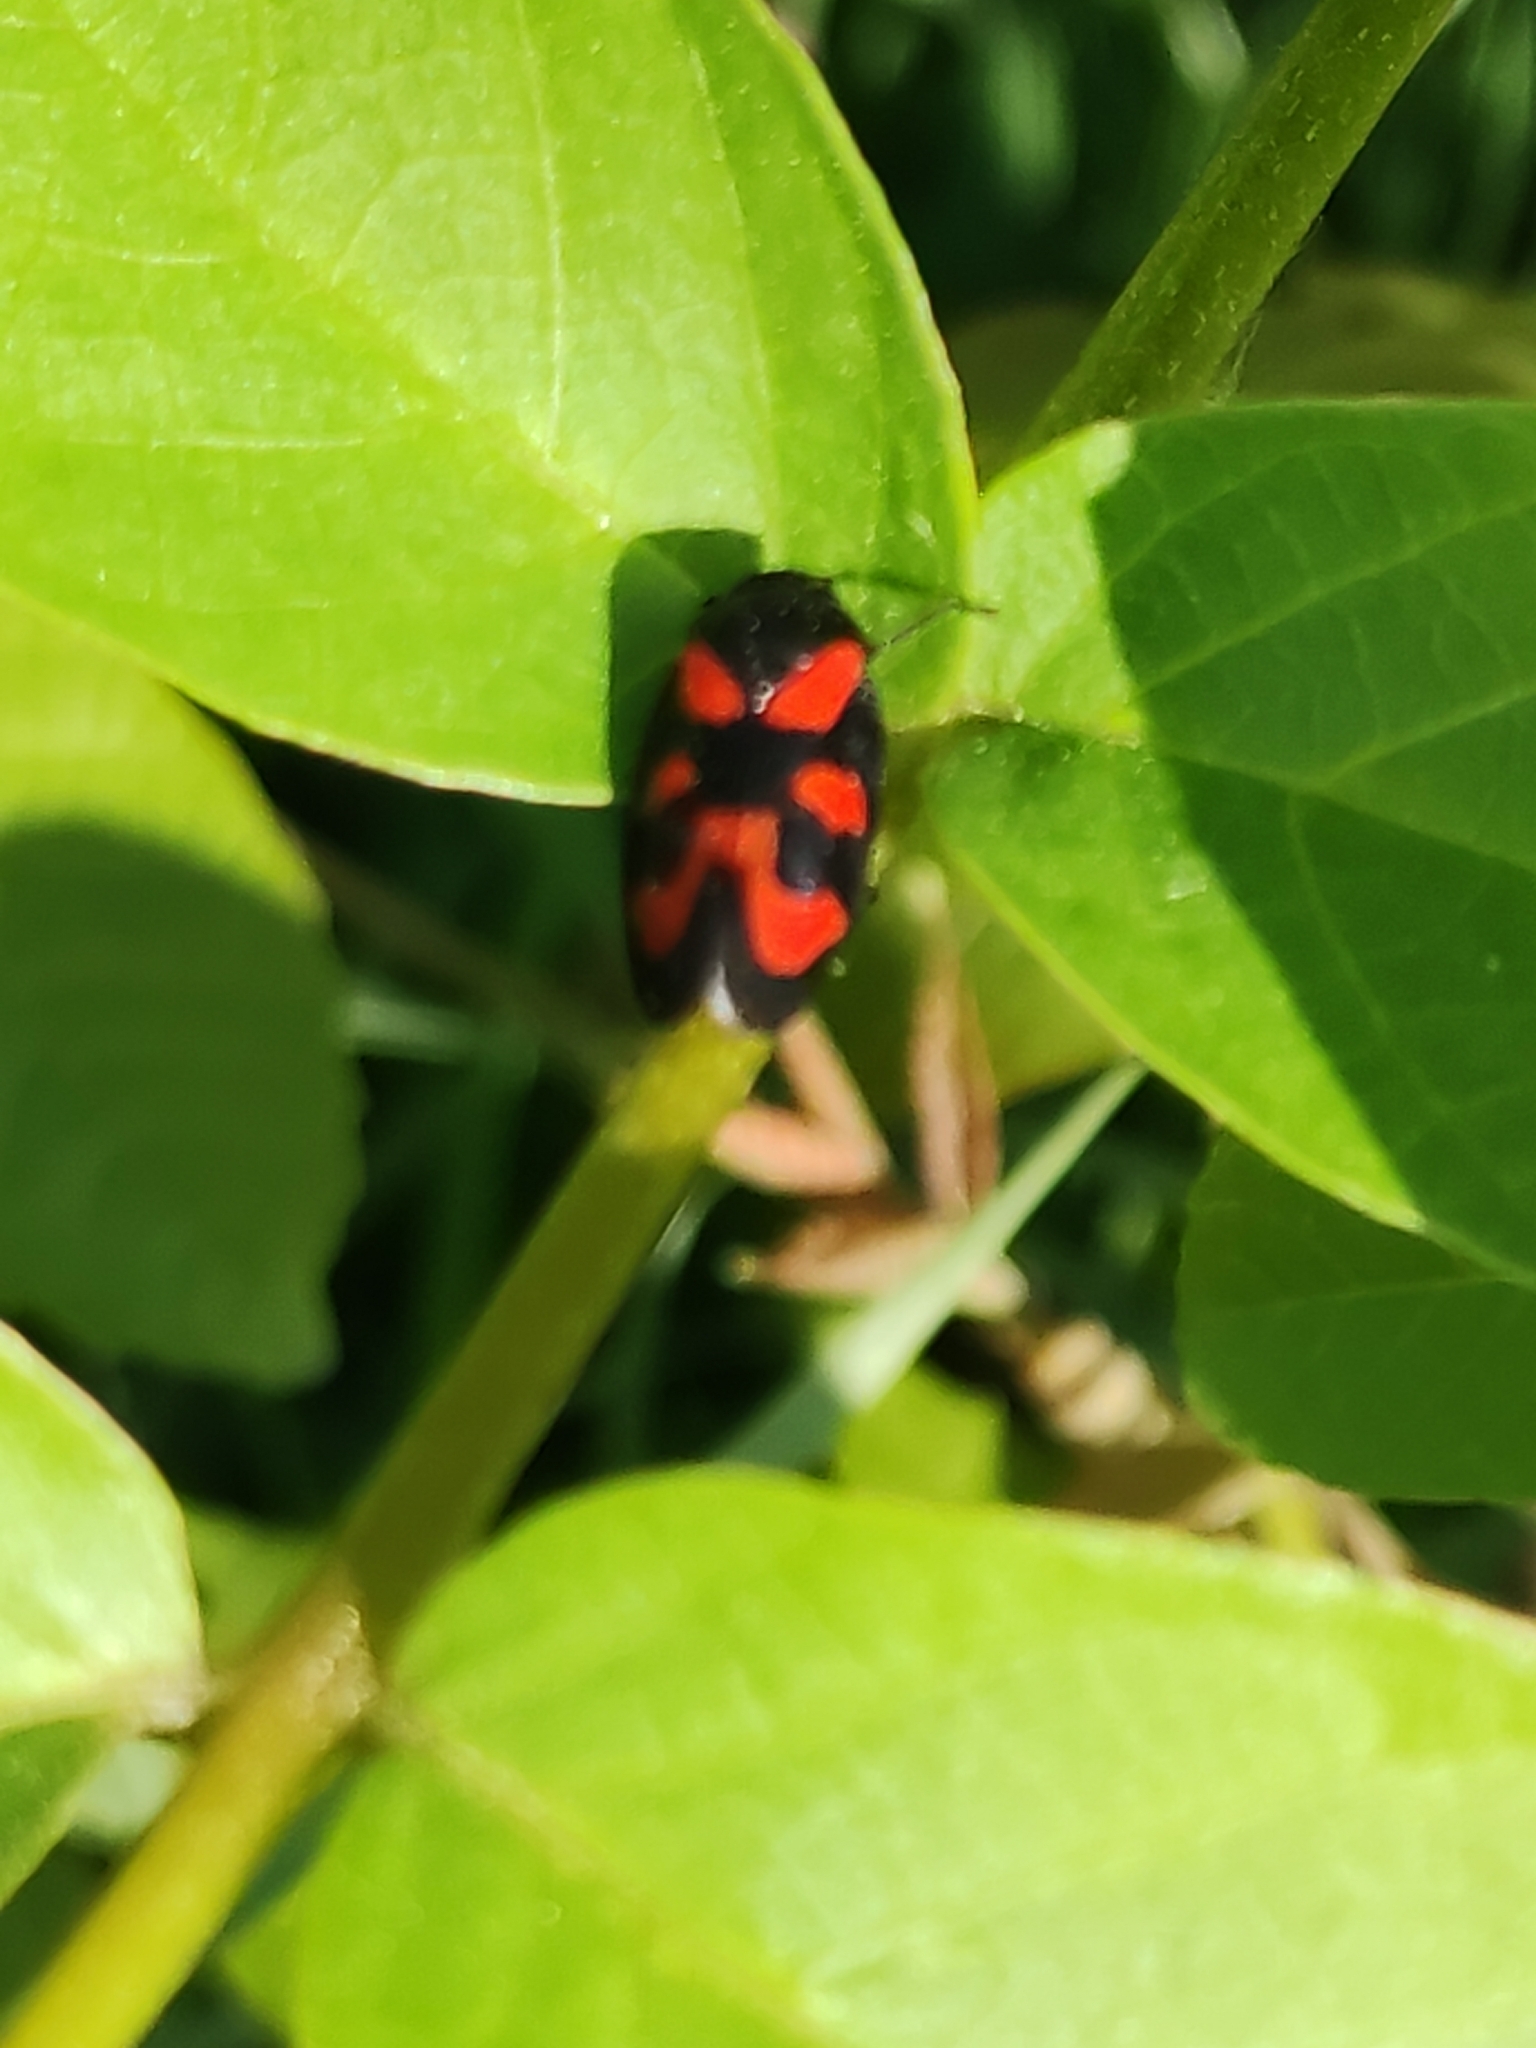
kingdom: Animalia
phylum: Arthropoda
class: Insecta
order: Hemiptera
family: Cercopidae
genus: Cercopis
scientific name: Cercopis vulnerata
